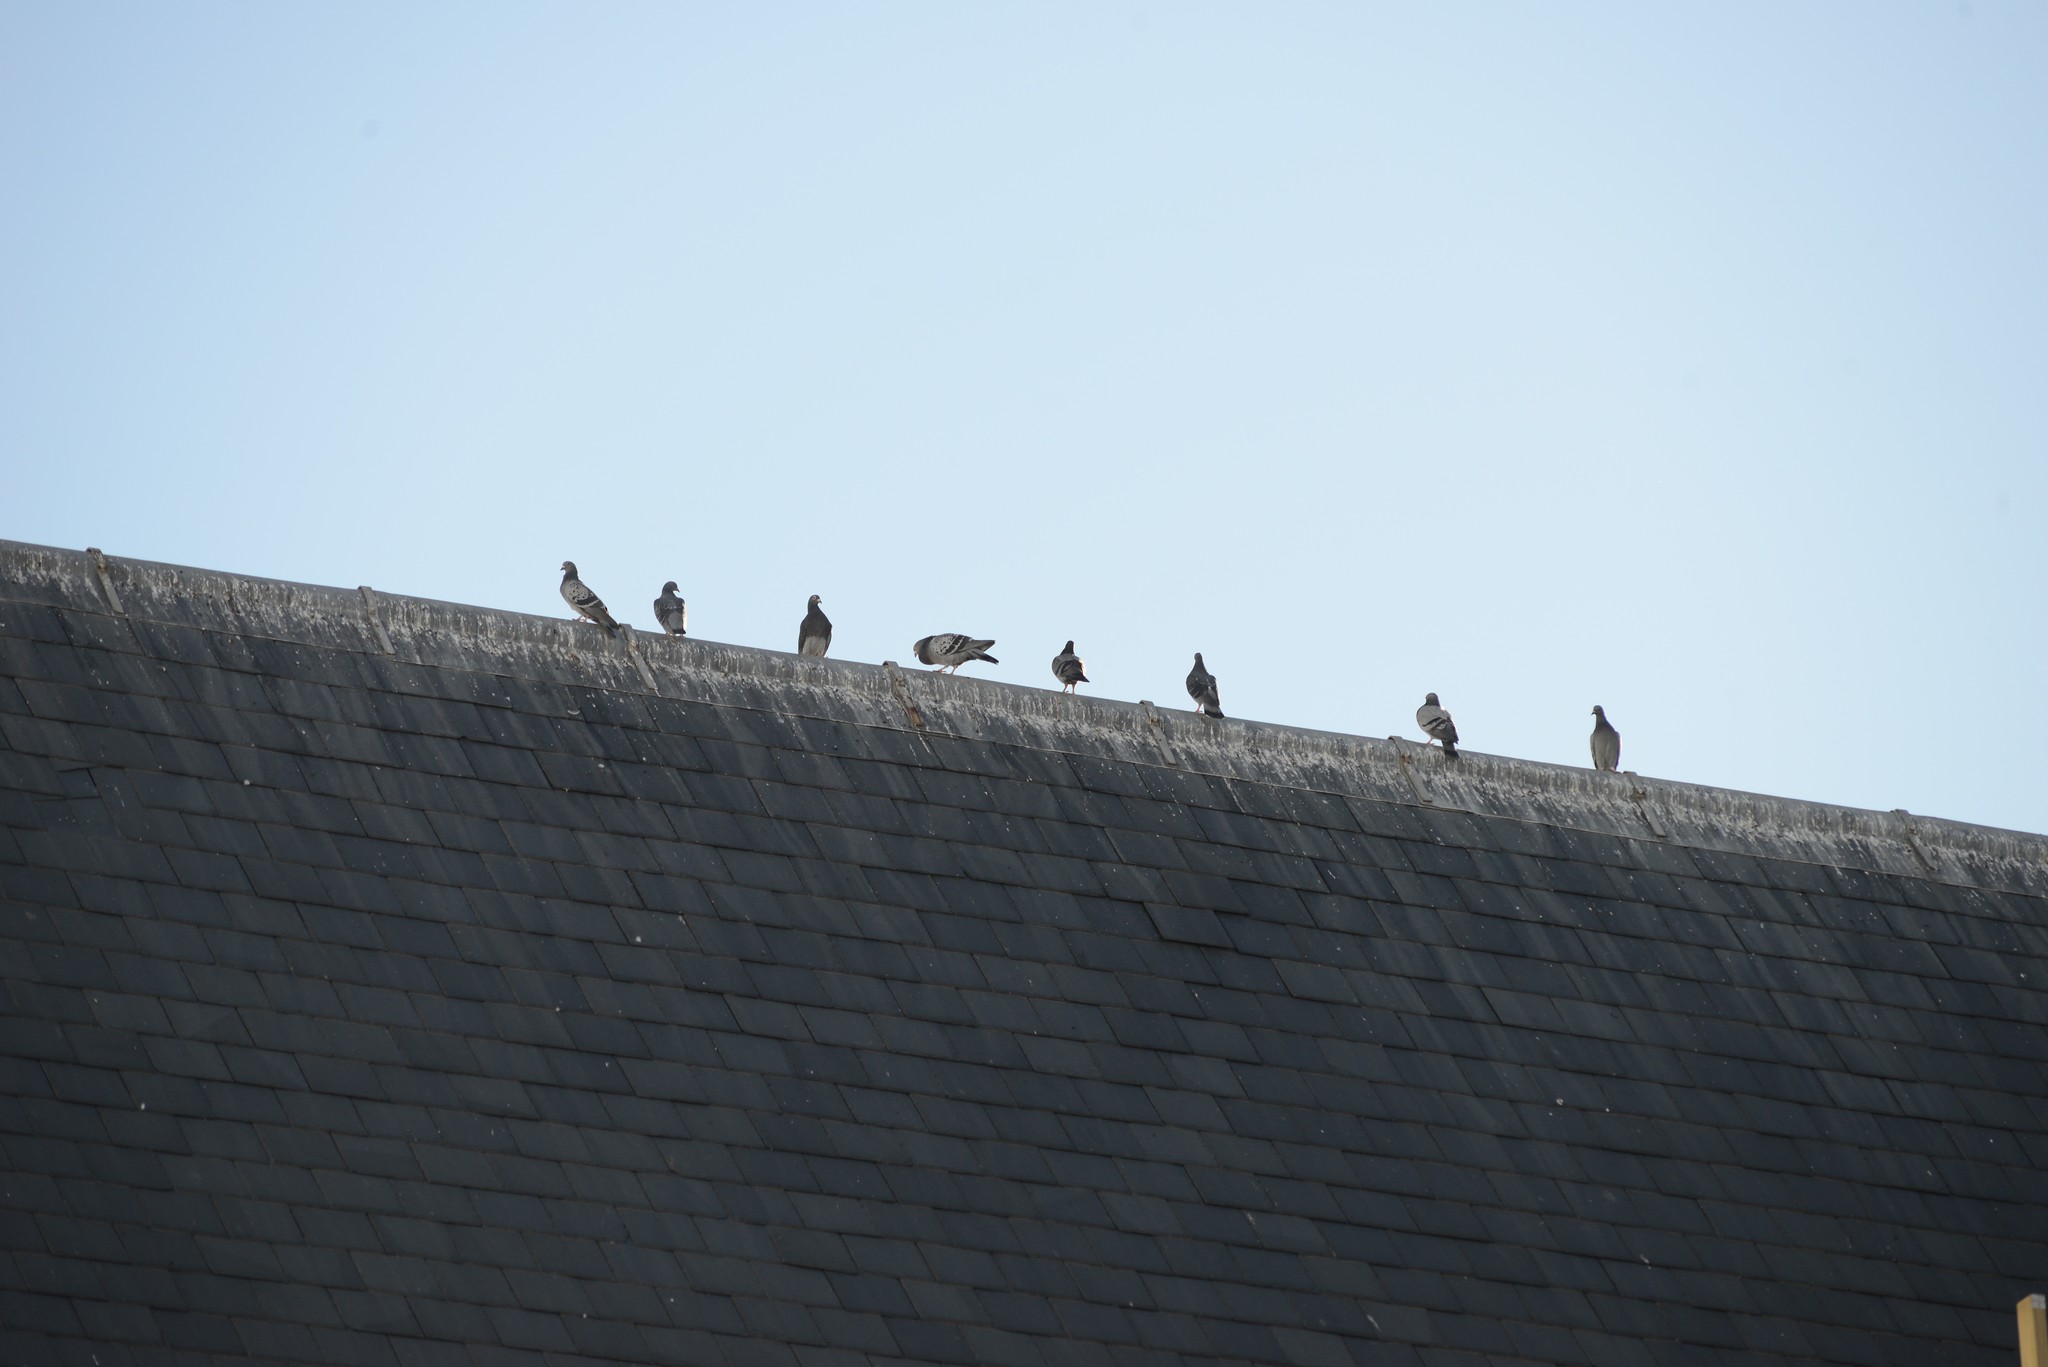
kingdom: Animalia
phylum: Chordata
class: Aves
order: Columbiformes
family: Columbidae
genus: Columba
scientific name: Columba livia
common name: Rock pigeon
